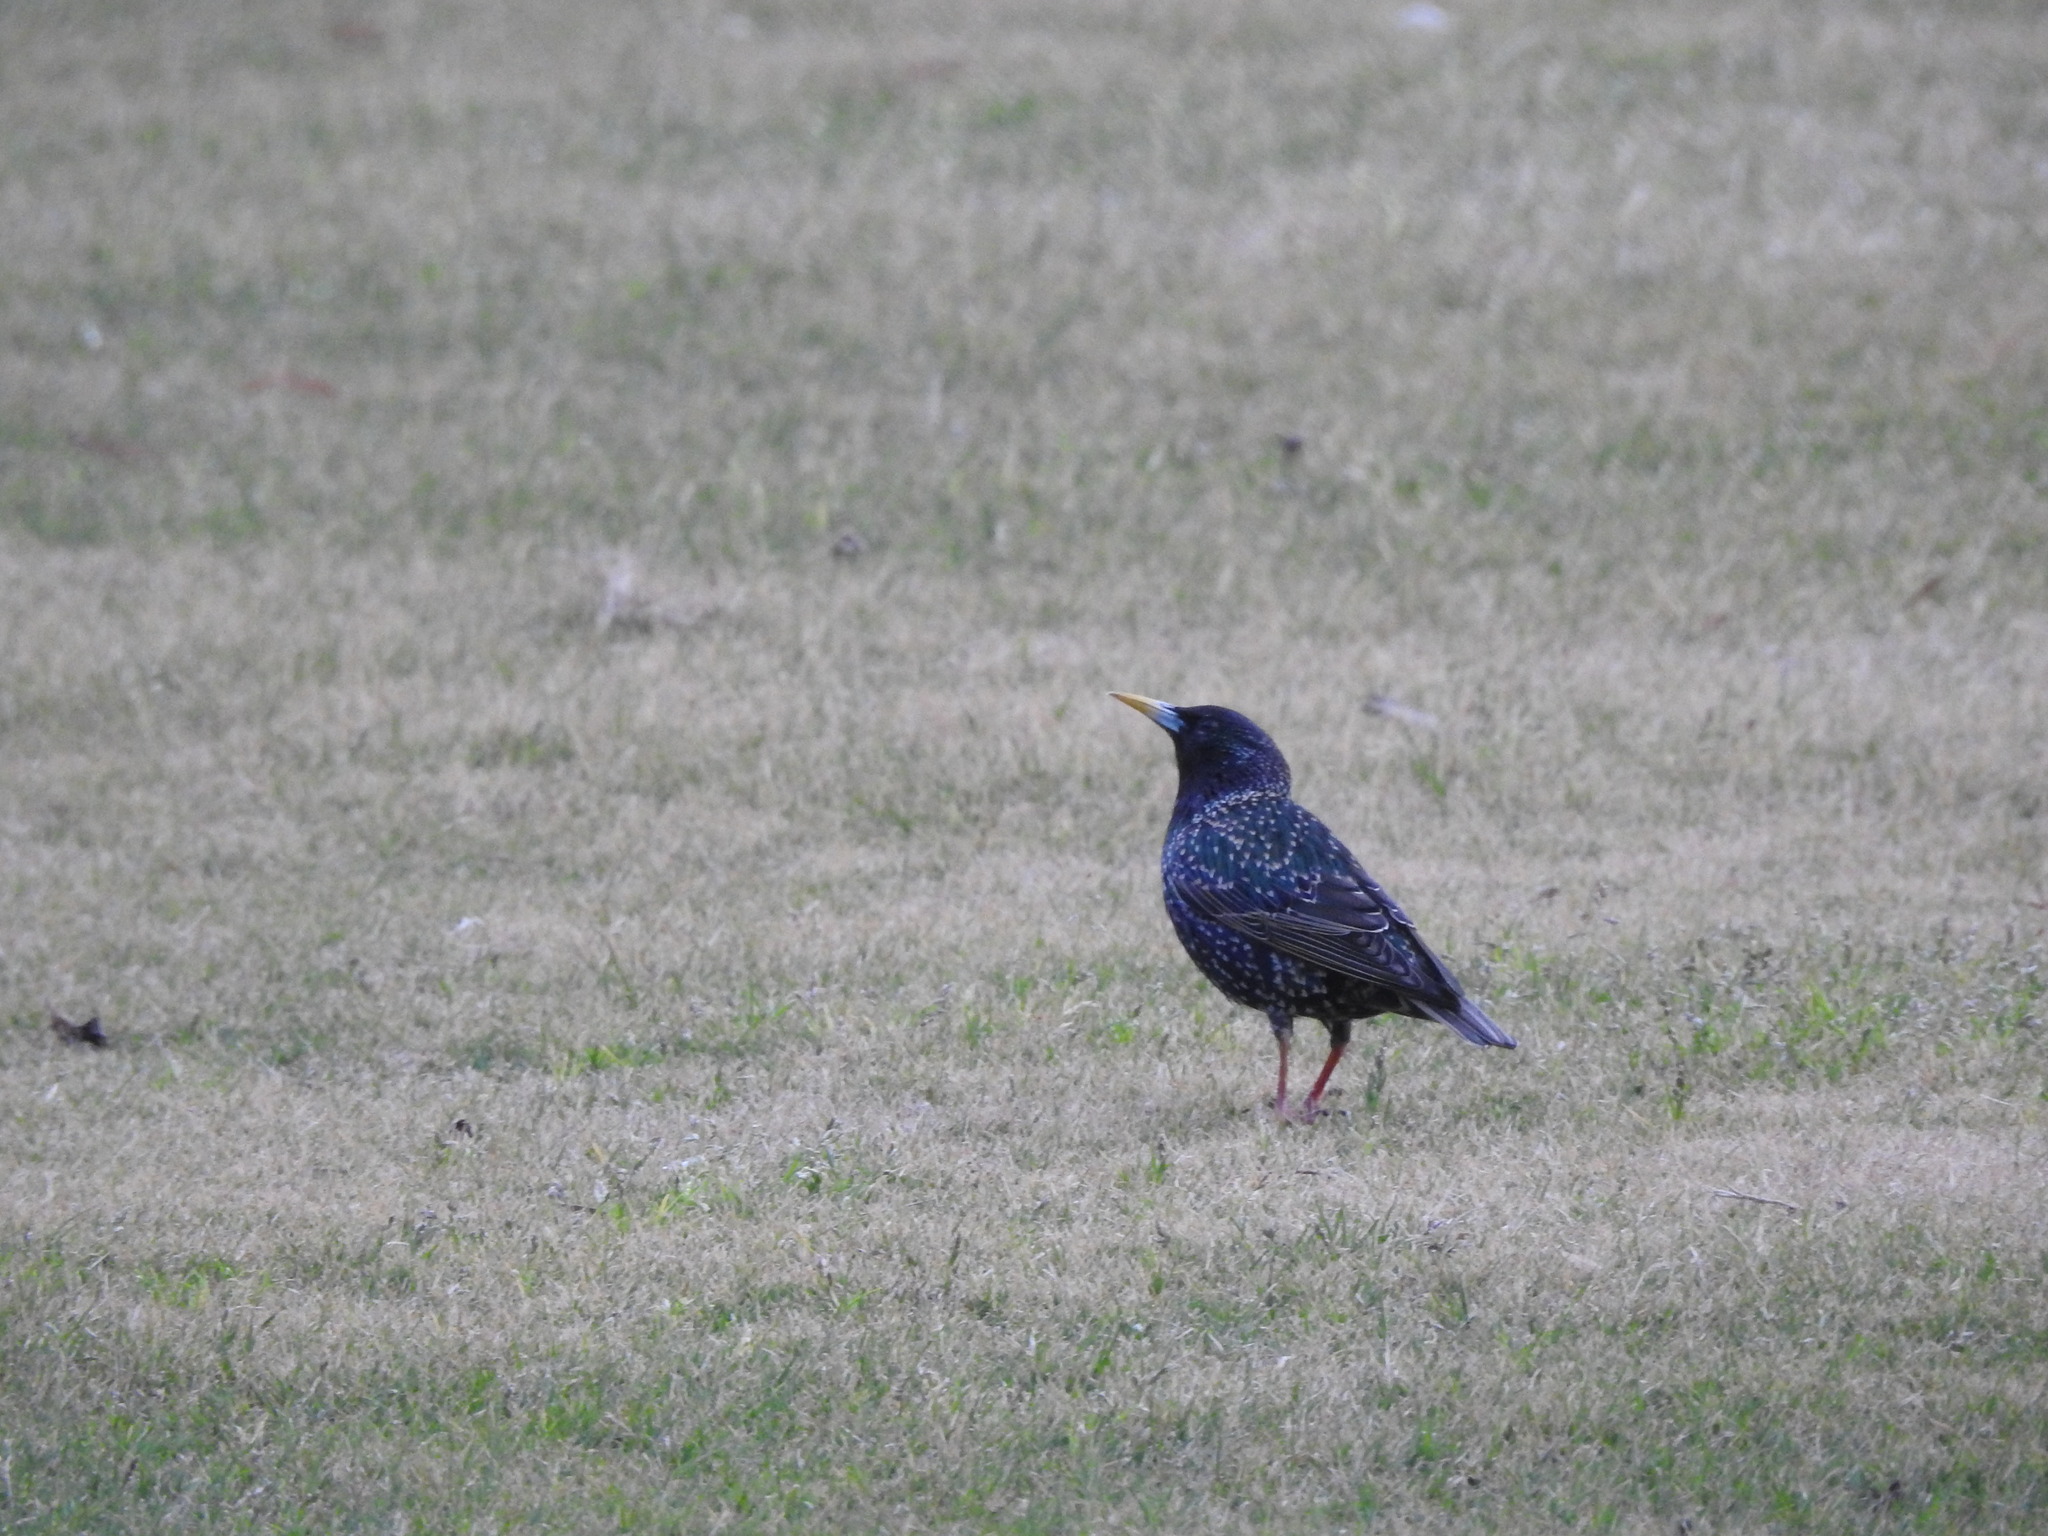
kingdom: Animalia
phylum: Chordata
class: Aves
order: Passeriformes
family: Sturnidae
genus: Sturnus
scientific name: Sturnus vulgaris
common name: Common starling
